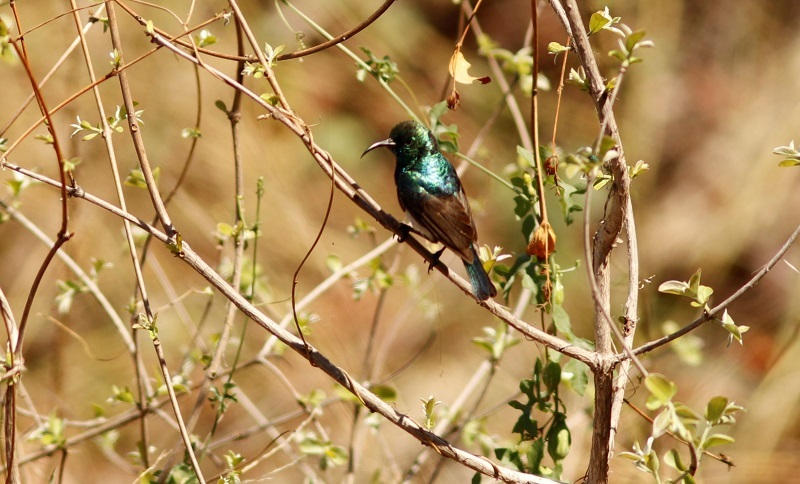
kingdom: Animalia
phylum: Chordata
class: Aves
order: Passeriformes
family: Nectariniidae
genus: Cinnyris
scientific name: Cinnyris talatala
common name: White-bellied sunbird
